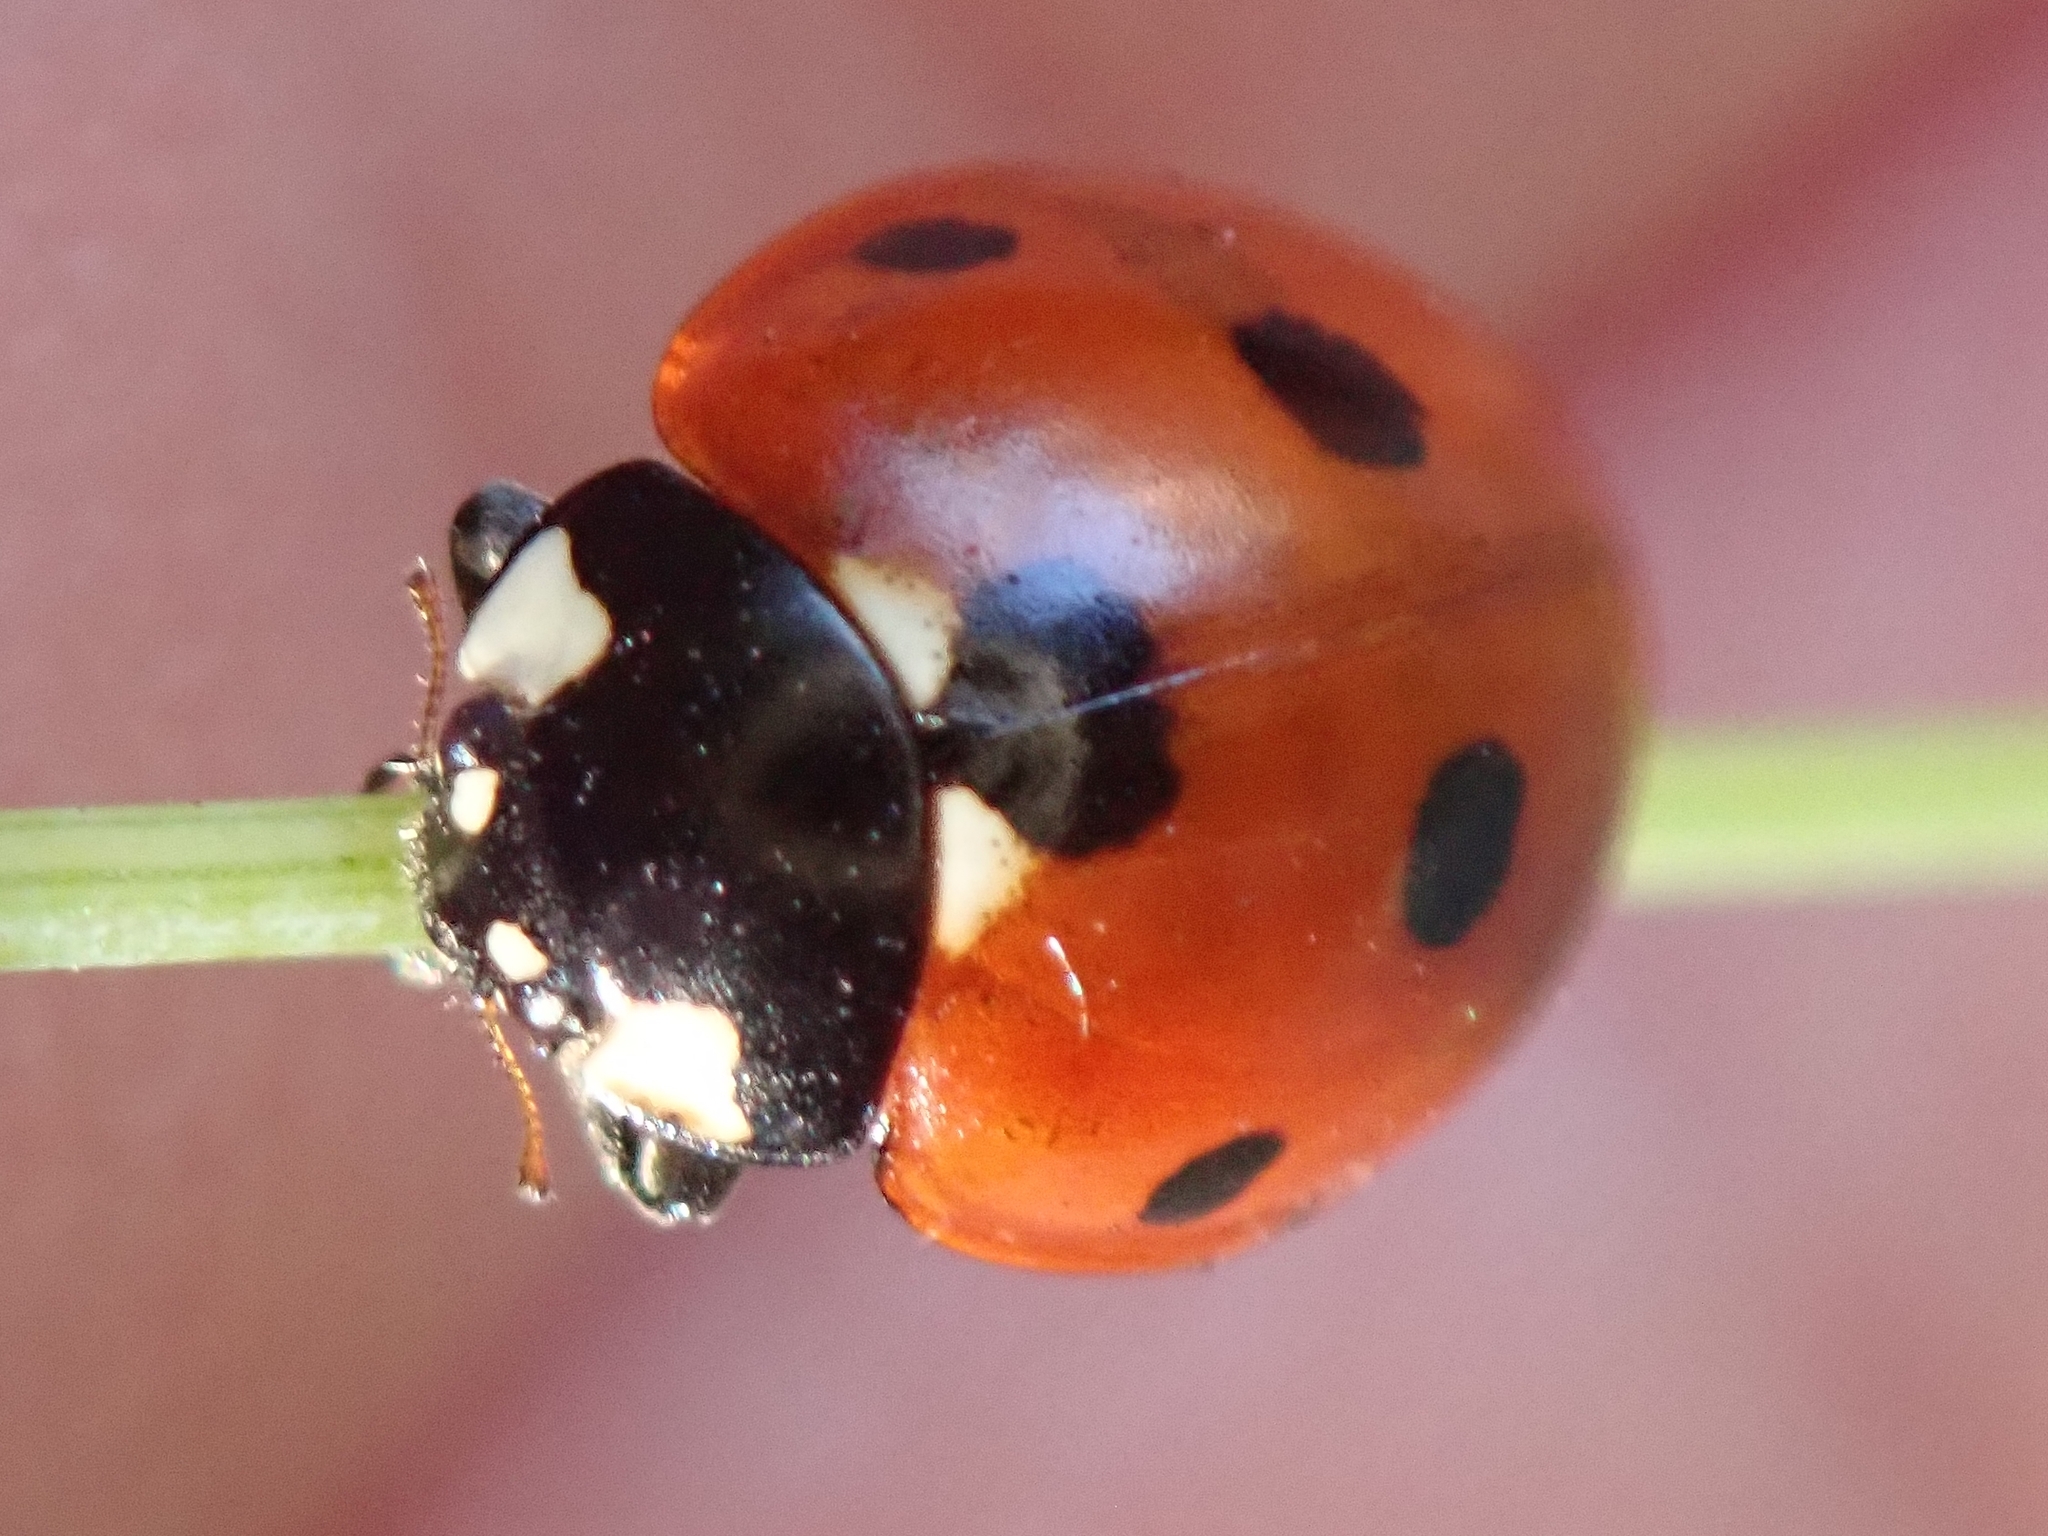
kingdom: Animalia
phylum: Arthropoda
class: Insecta
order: Coleoptera
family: Coccinellidae
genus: Coccinella
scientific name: Coccinella septempunctata
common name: Sevenspotted lady beetle
